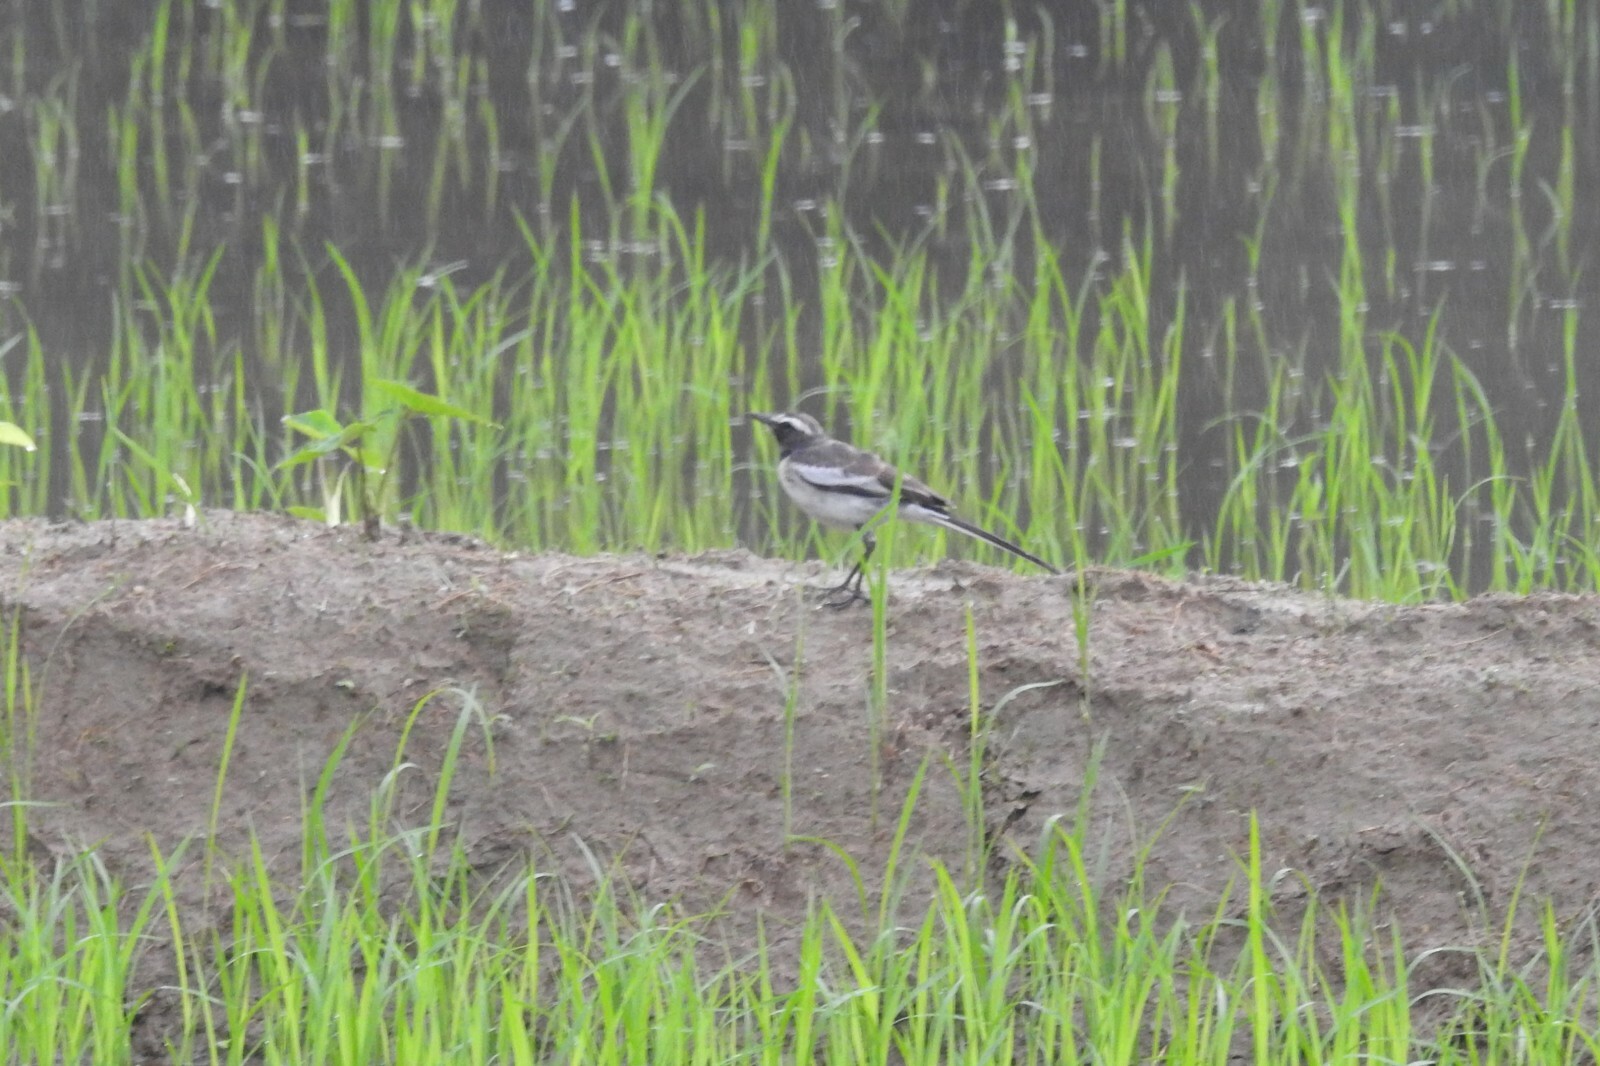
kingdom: Animalia
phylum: Chordata
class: Aves
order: Passeriformes
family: Motacillidae
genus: Motacilla
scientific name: Motacilla maderaspatensis
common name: White-browed wagtail
